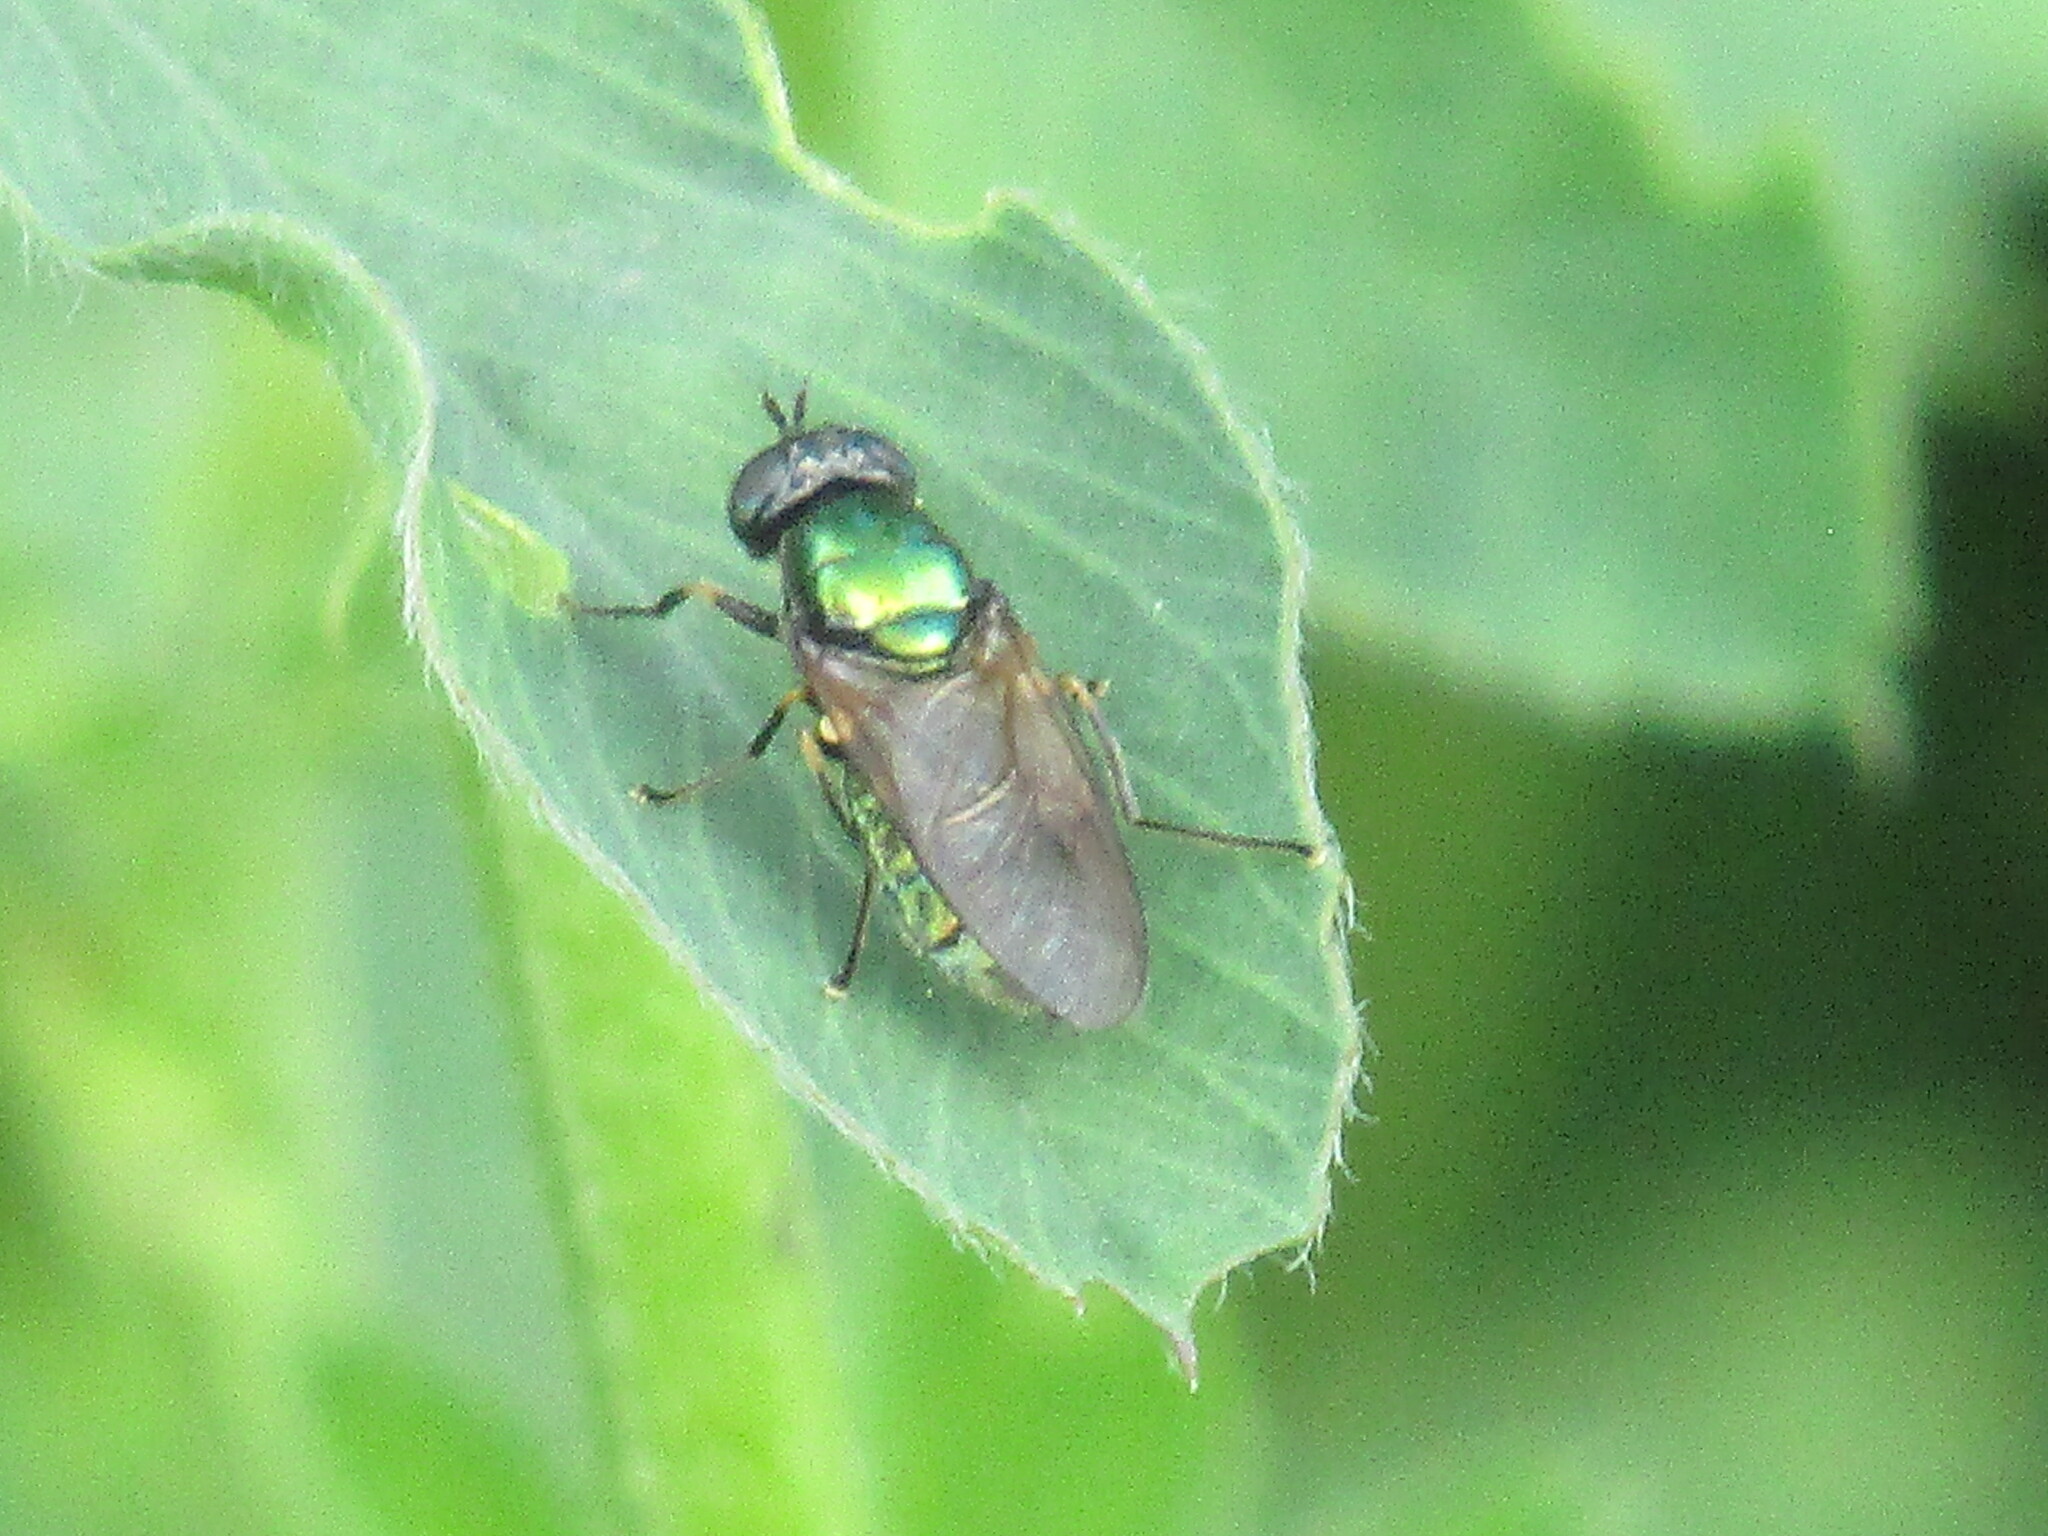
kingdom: Animalia
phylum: Arthropoda
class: Insecta
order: Diptera
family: Stratiomyidae
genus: Chloromyia
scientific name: Chloromyia formosa
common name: Soldier fly
